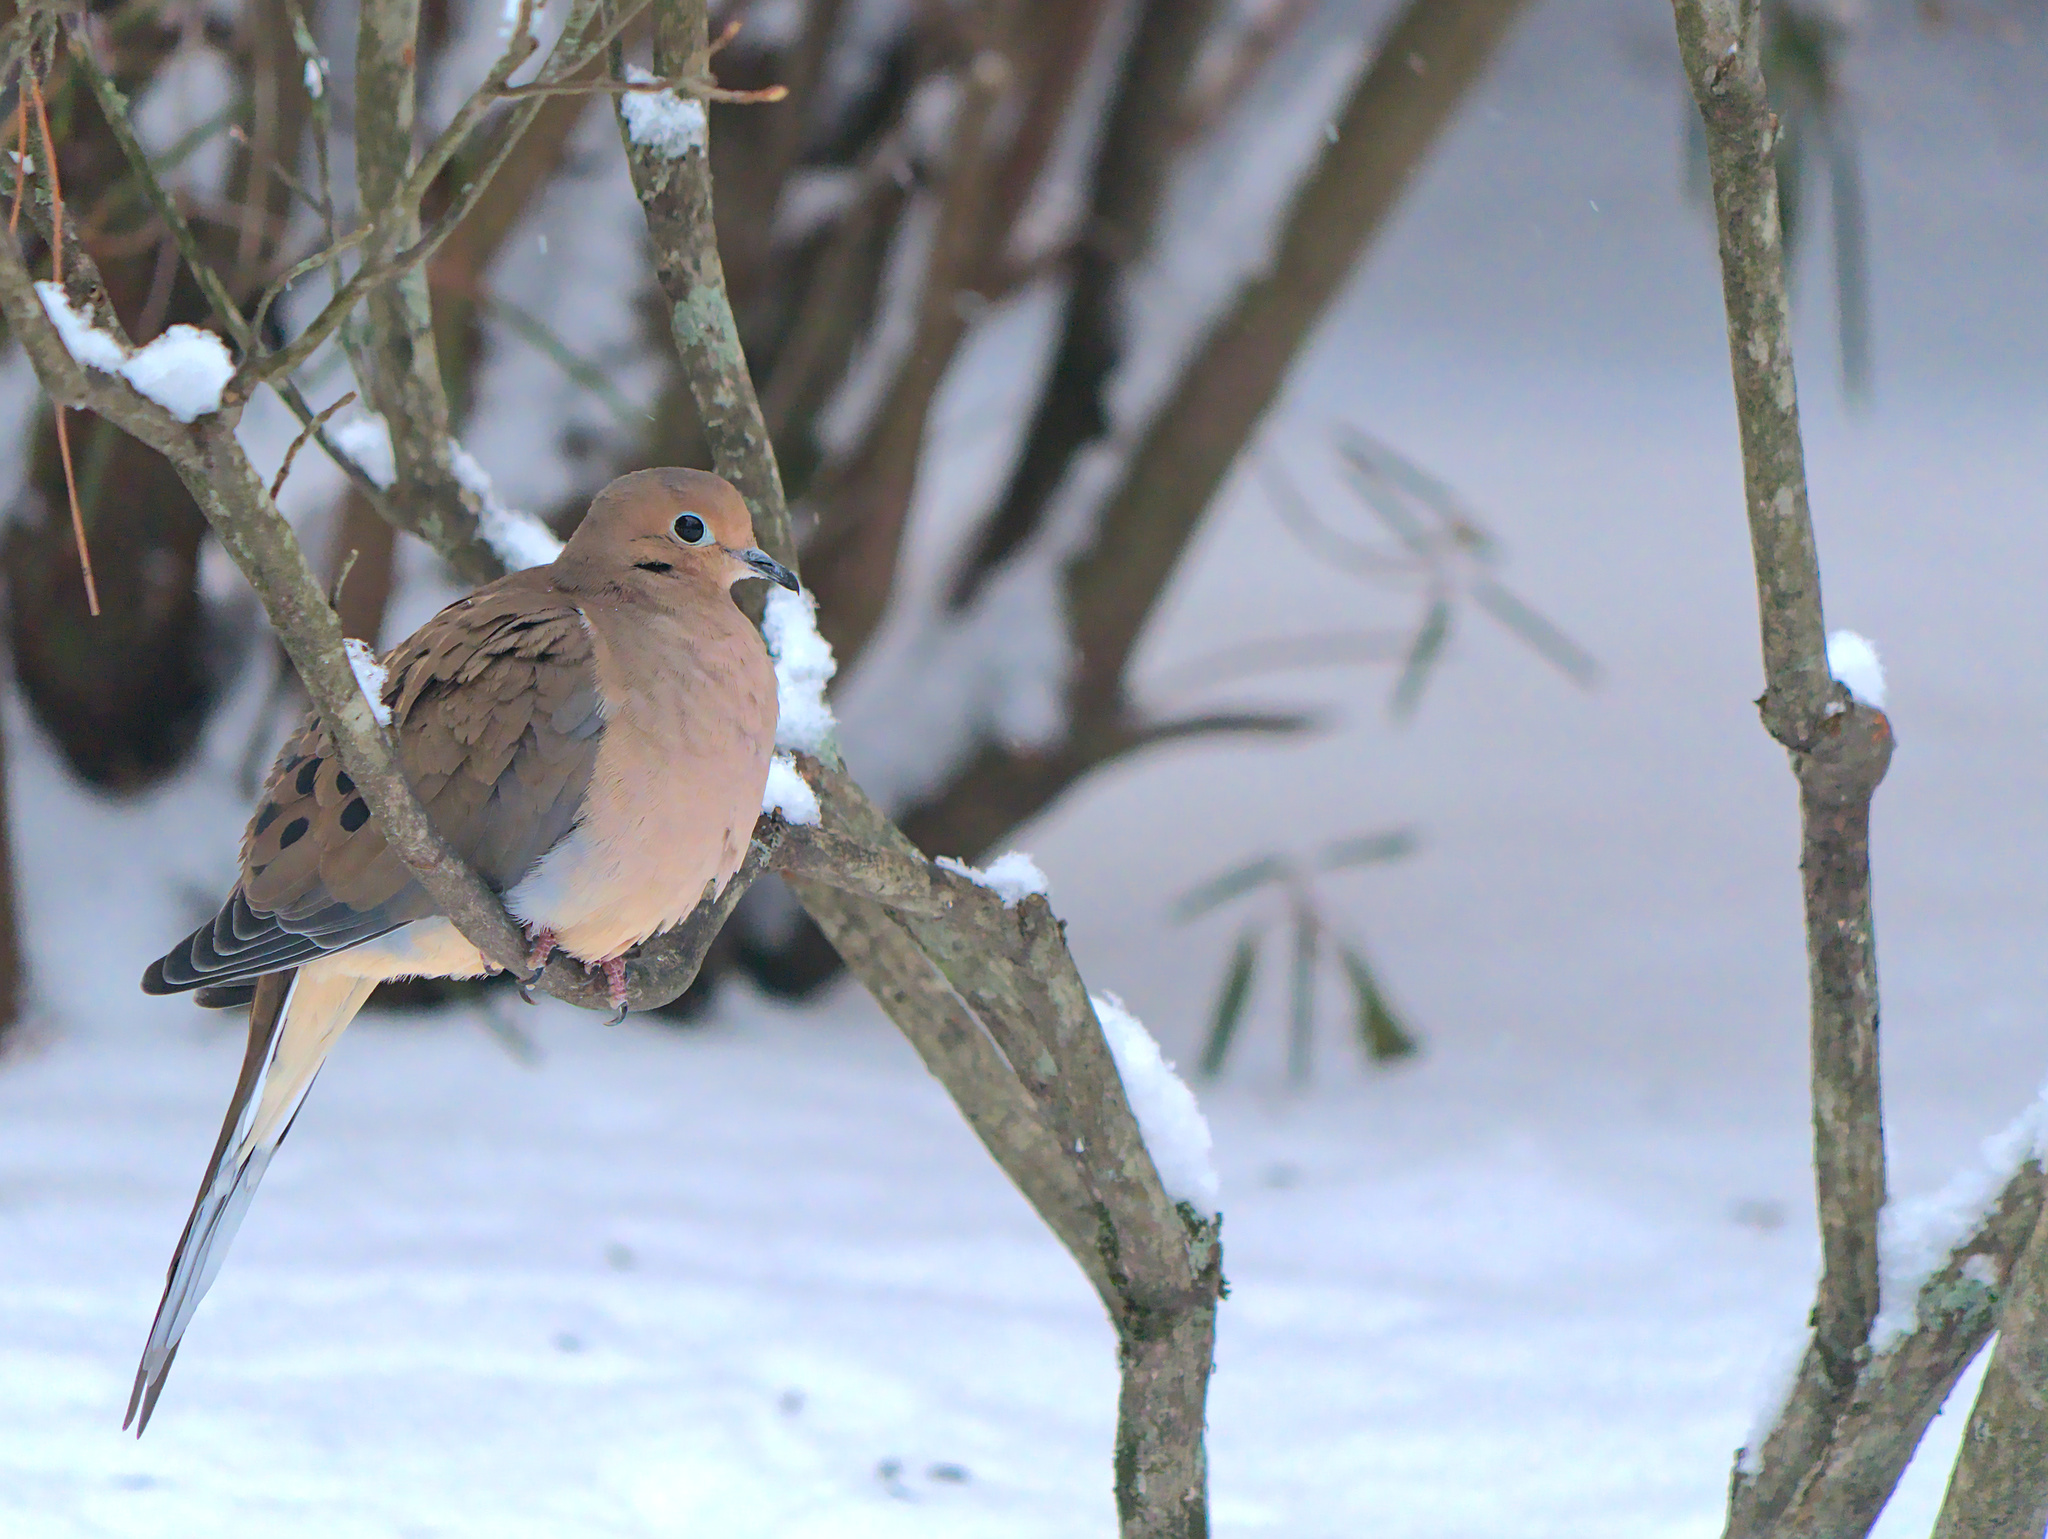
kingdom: Animalia
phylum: Chordata
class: Aves
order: Columbiformes
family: Columbidae
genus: Zenaida
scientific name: Zenaida macroura
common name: Mourning dove
